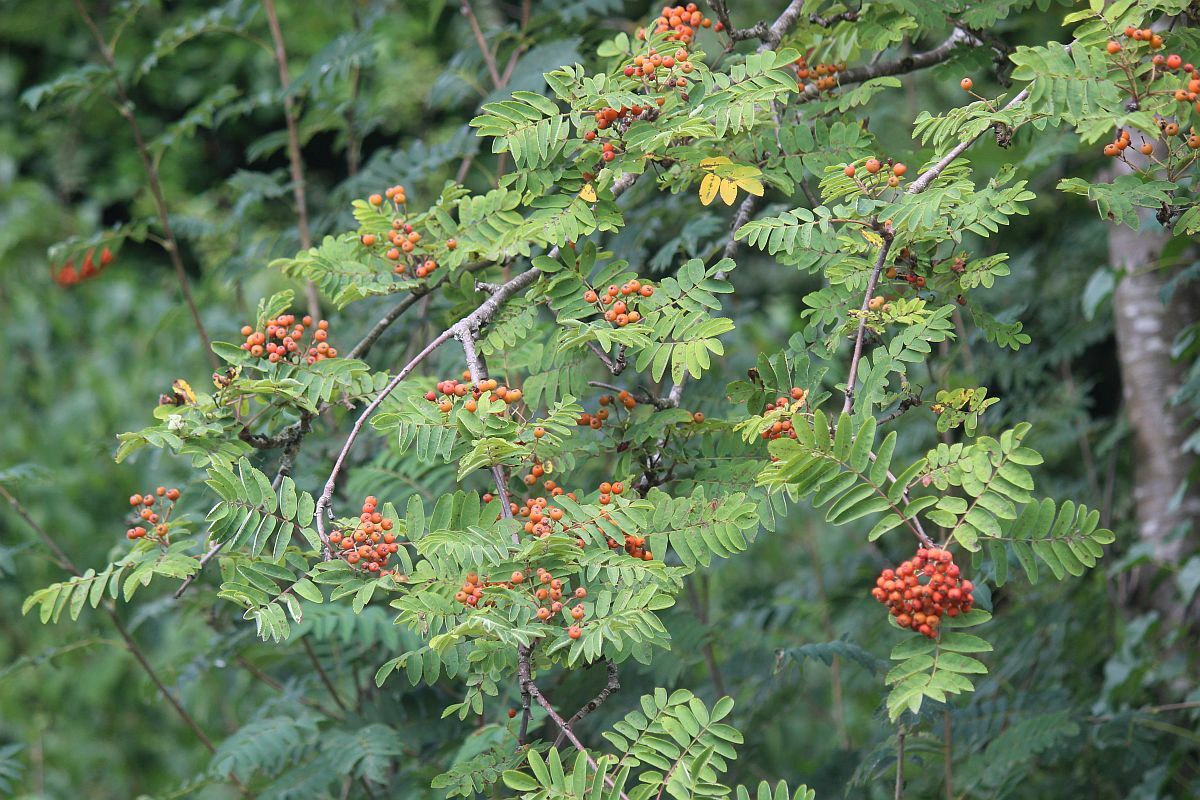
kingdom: Plantae
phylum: Tracheophyta
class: Magnoliopsida
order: Rosales
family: Rosaceae
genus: Sorbus
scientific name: Sorbus aucuparia
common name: Rowan
